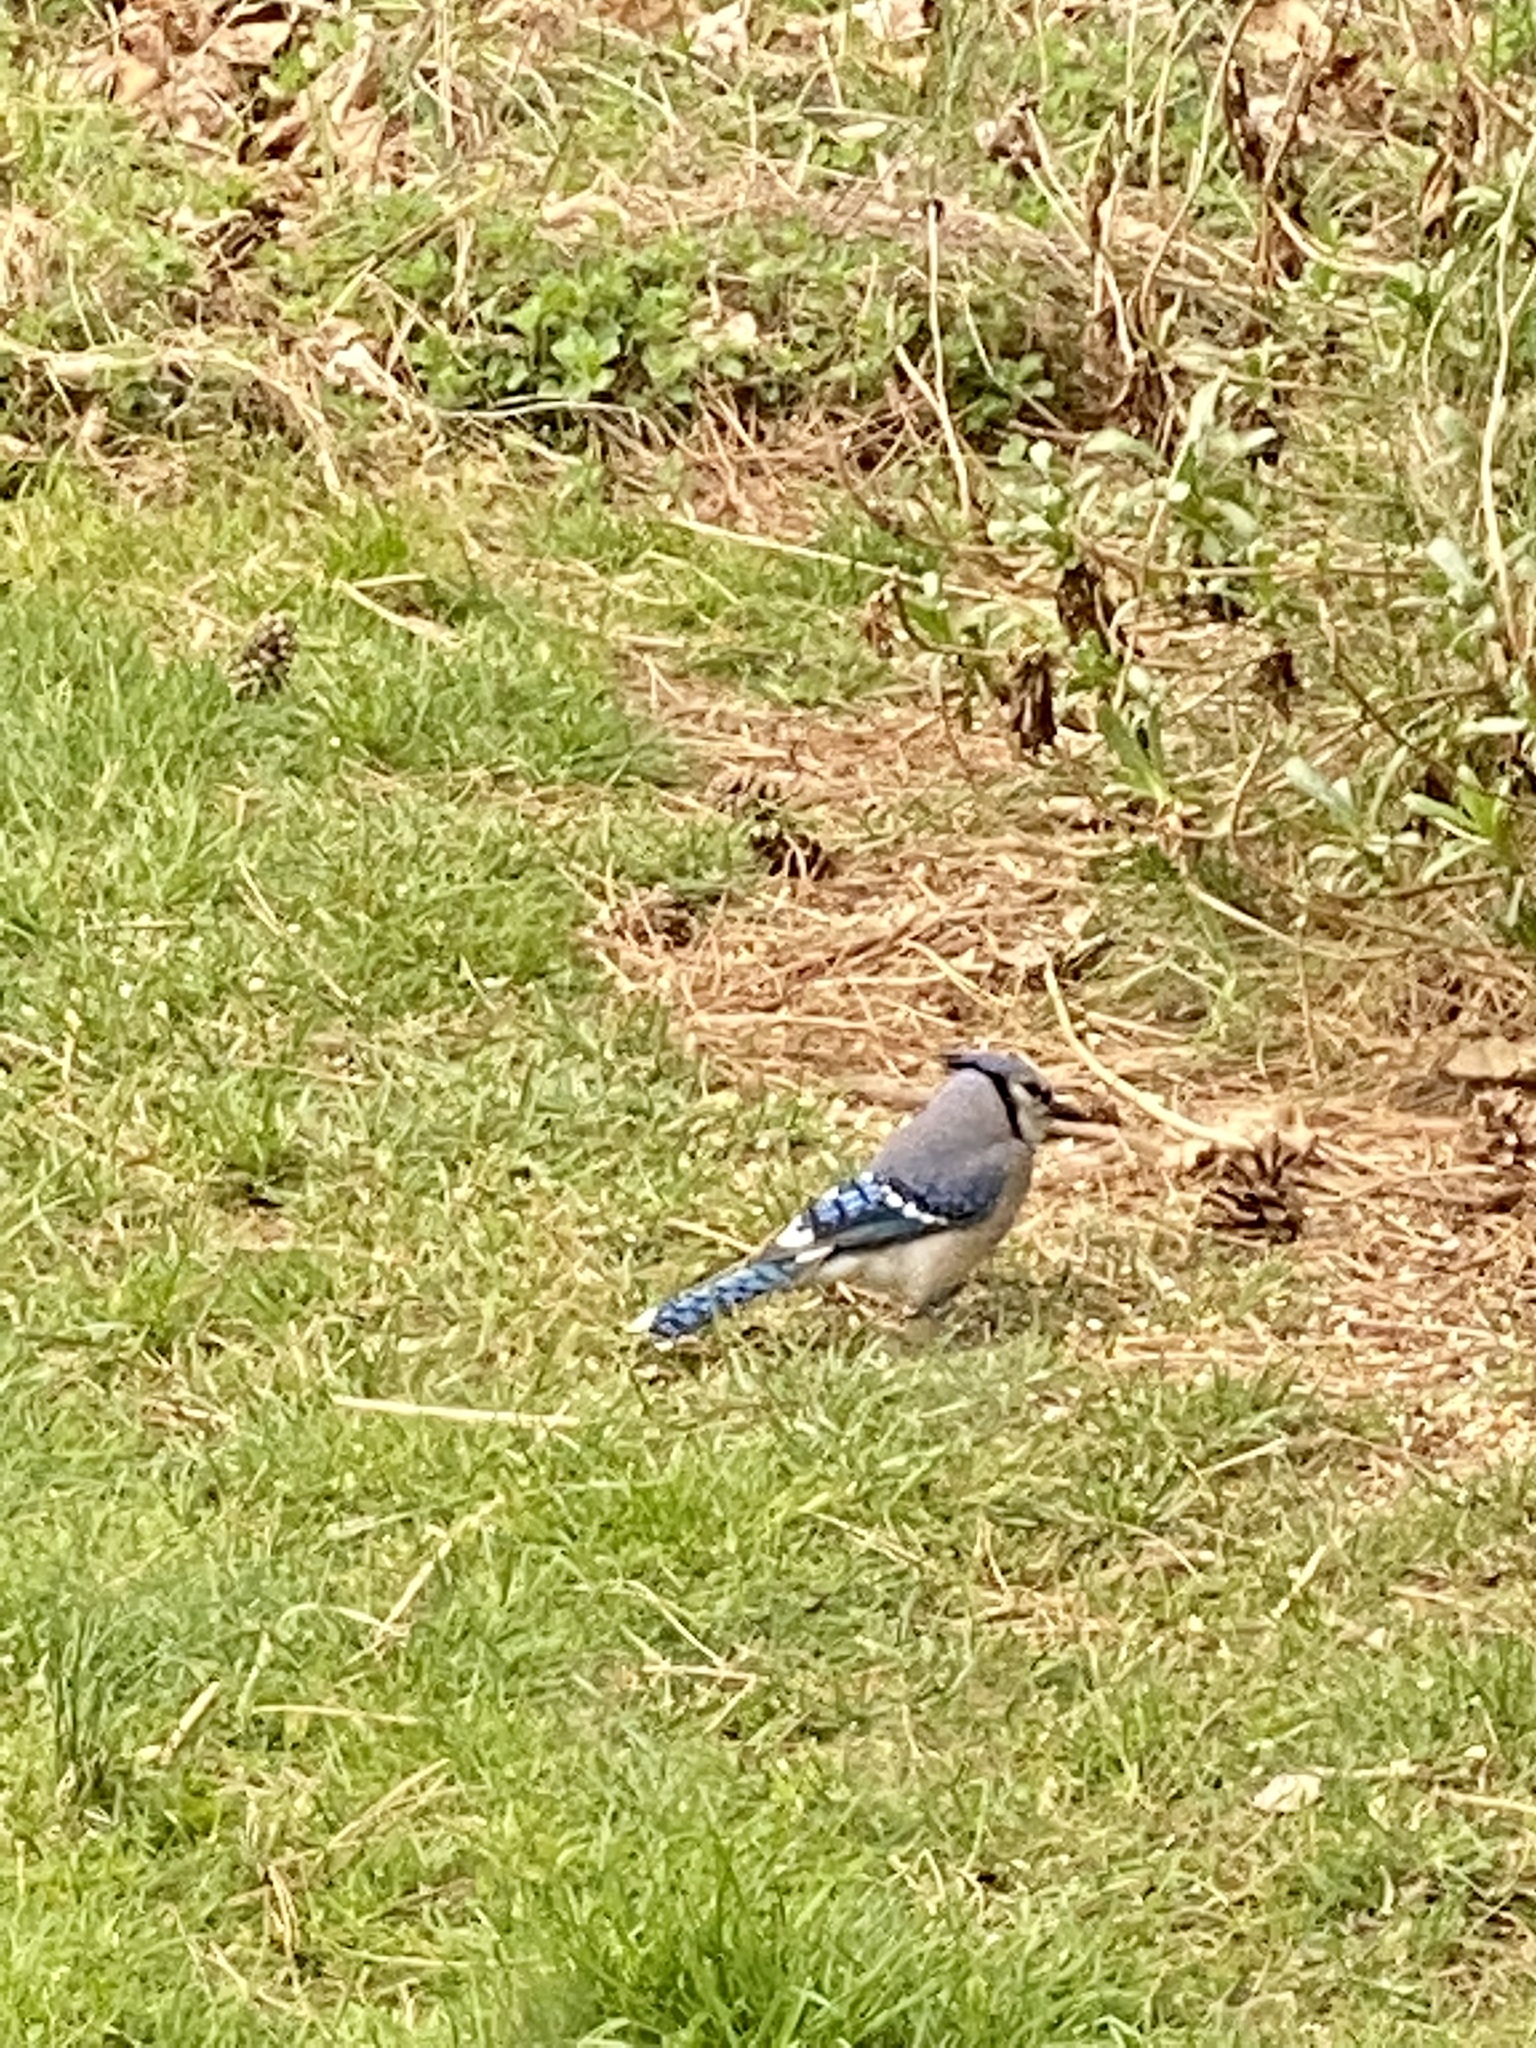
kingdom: Animalia
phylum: Chordata
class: Aves
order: Passeriformes
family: Corvidae
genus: Cyanocitta
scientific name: Cyanocitta cristata
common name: Blue jay
